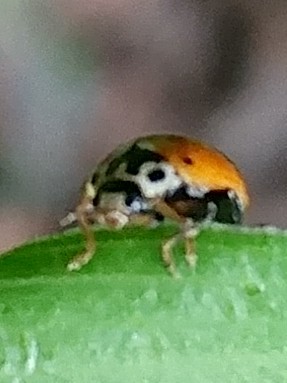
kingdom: Animalia
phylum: Arthropoda
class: Insecta
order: Coleoptera
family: Coccinellidae
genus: Cycloneda
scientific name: Cycloneda polita
